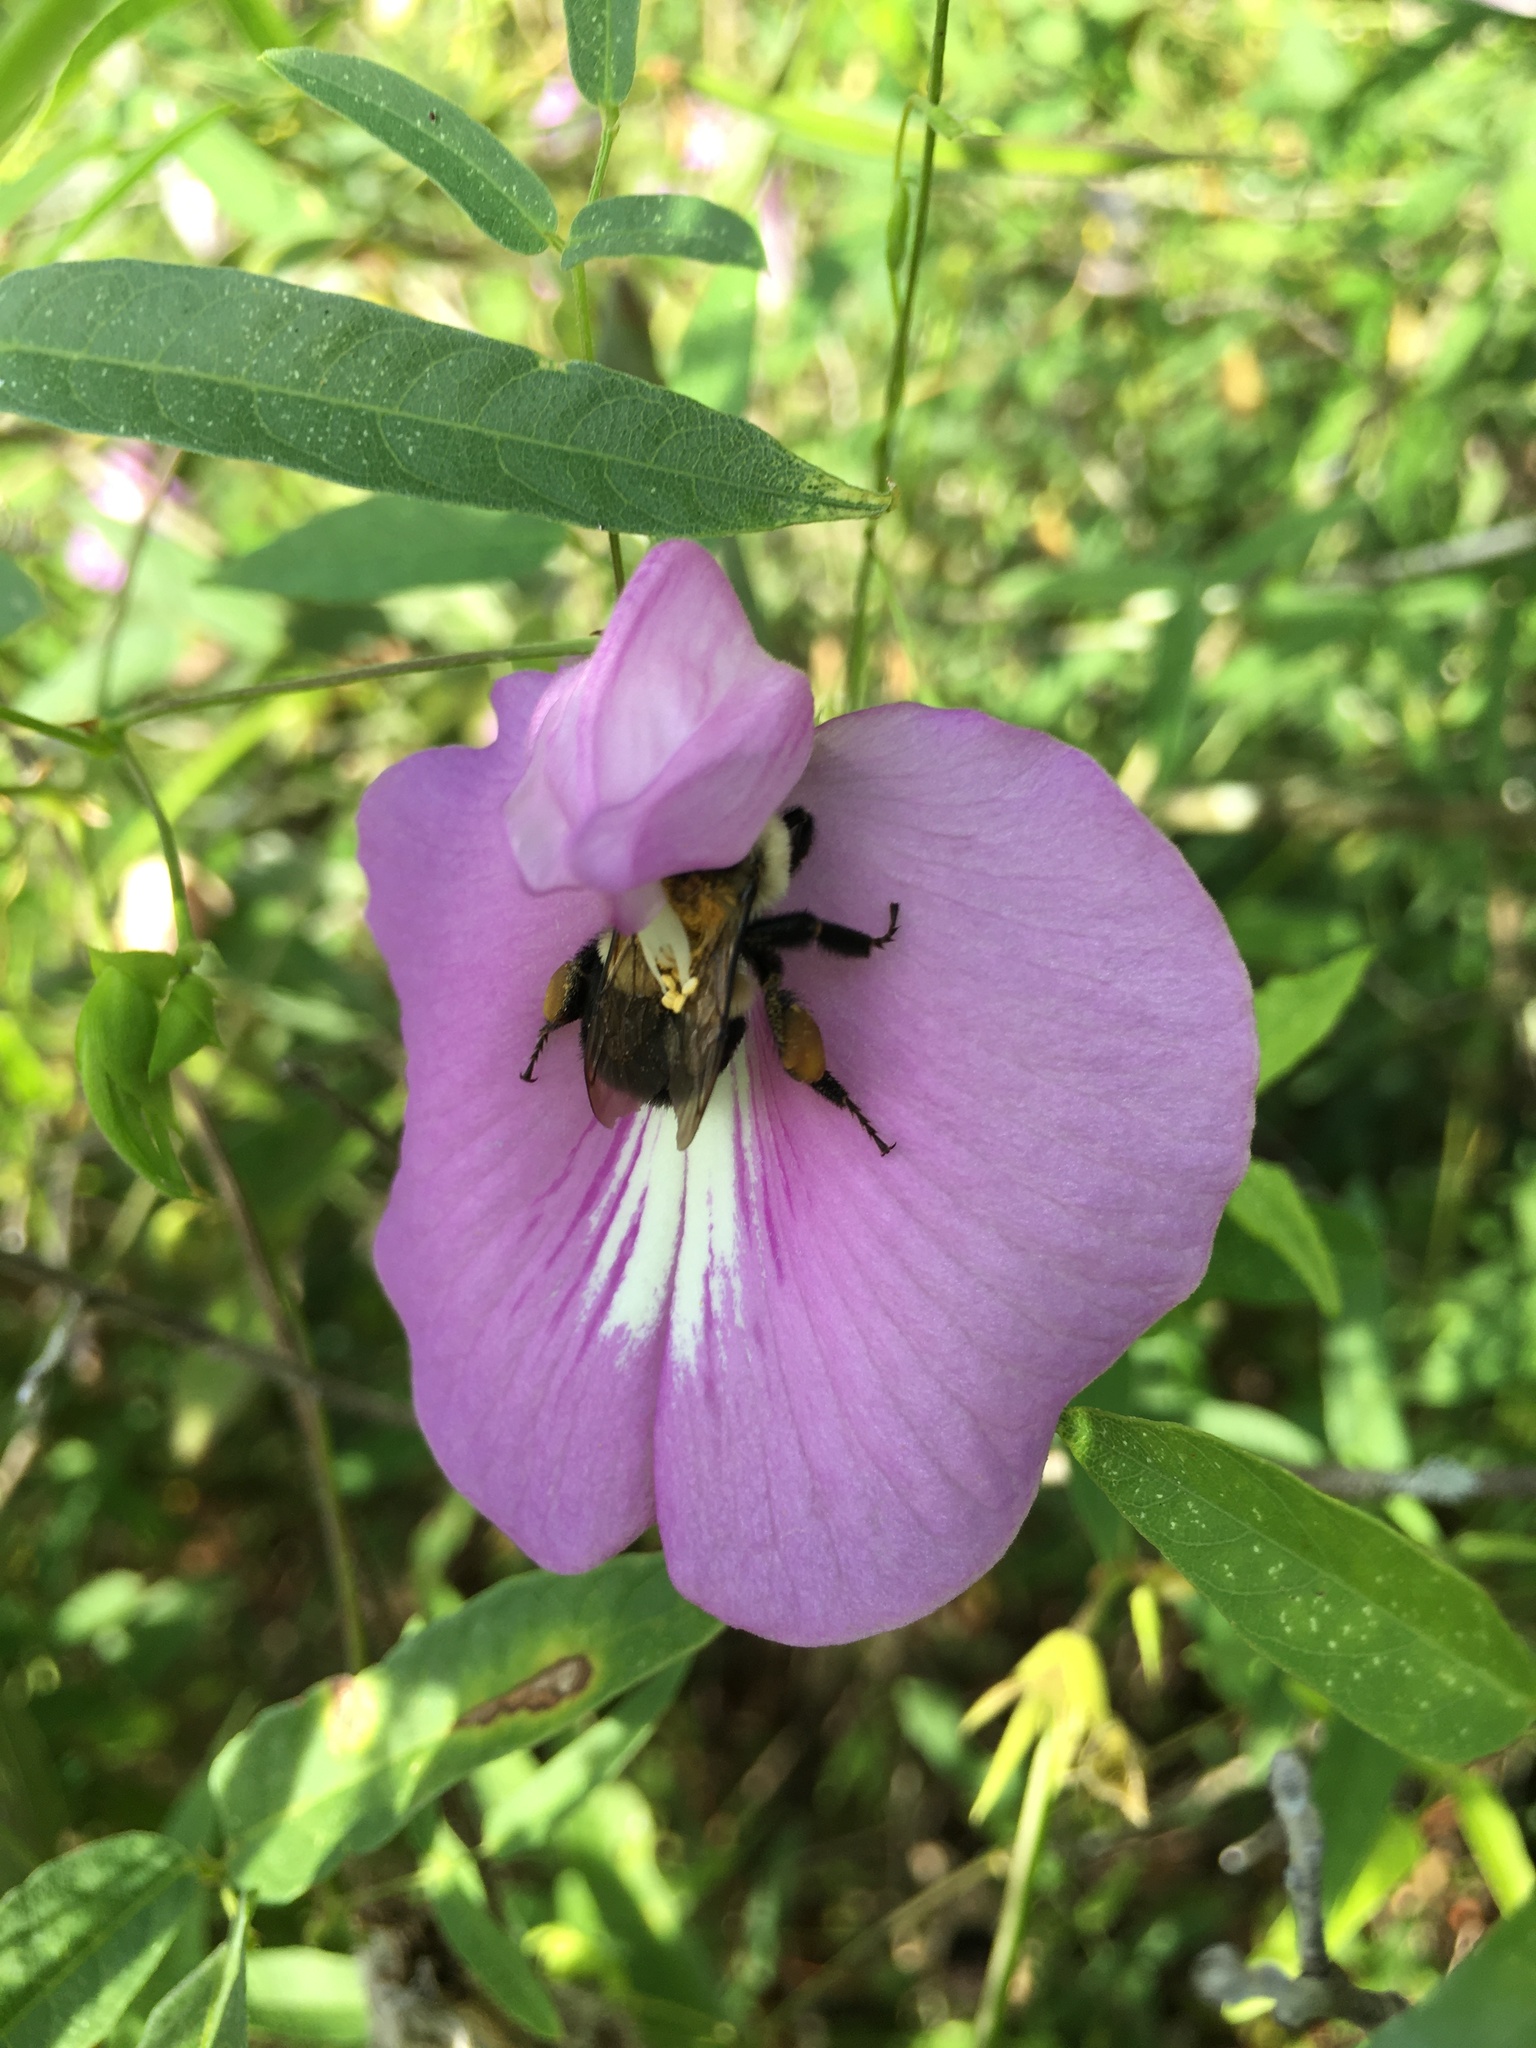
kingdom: Animalia
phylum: Arthropoda
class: Insecta
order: Hymenoptera
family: Apidae
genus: Bombus
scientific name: Bombus impatiens
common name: Common eastern bumble bee
